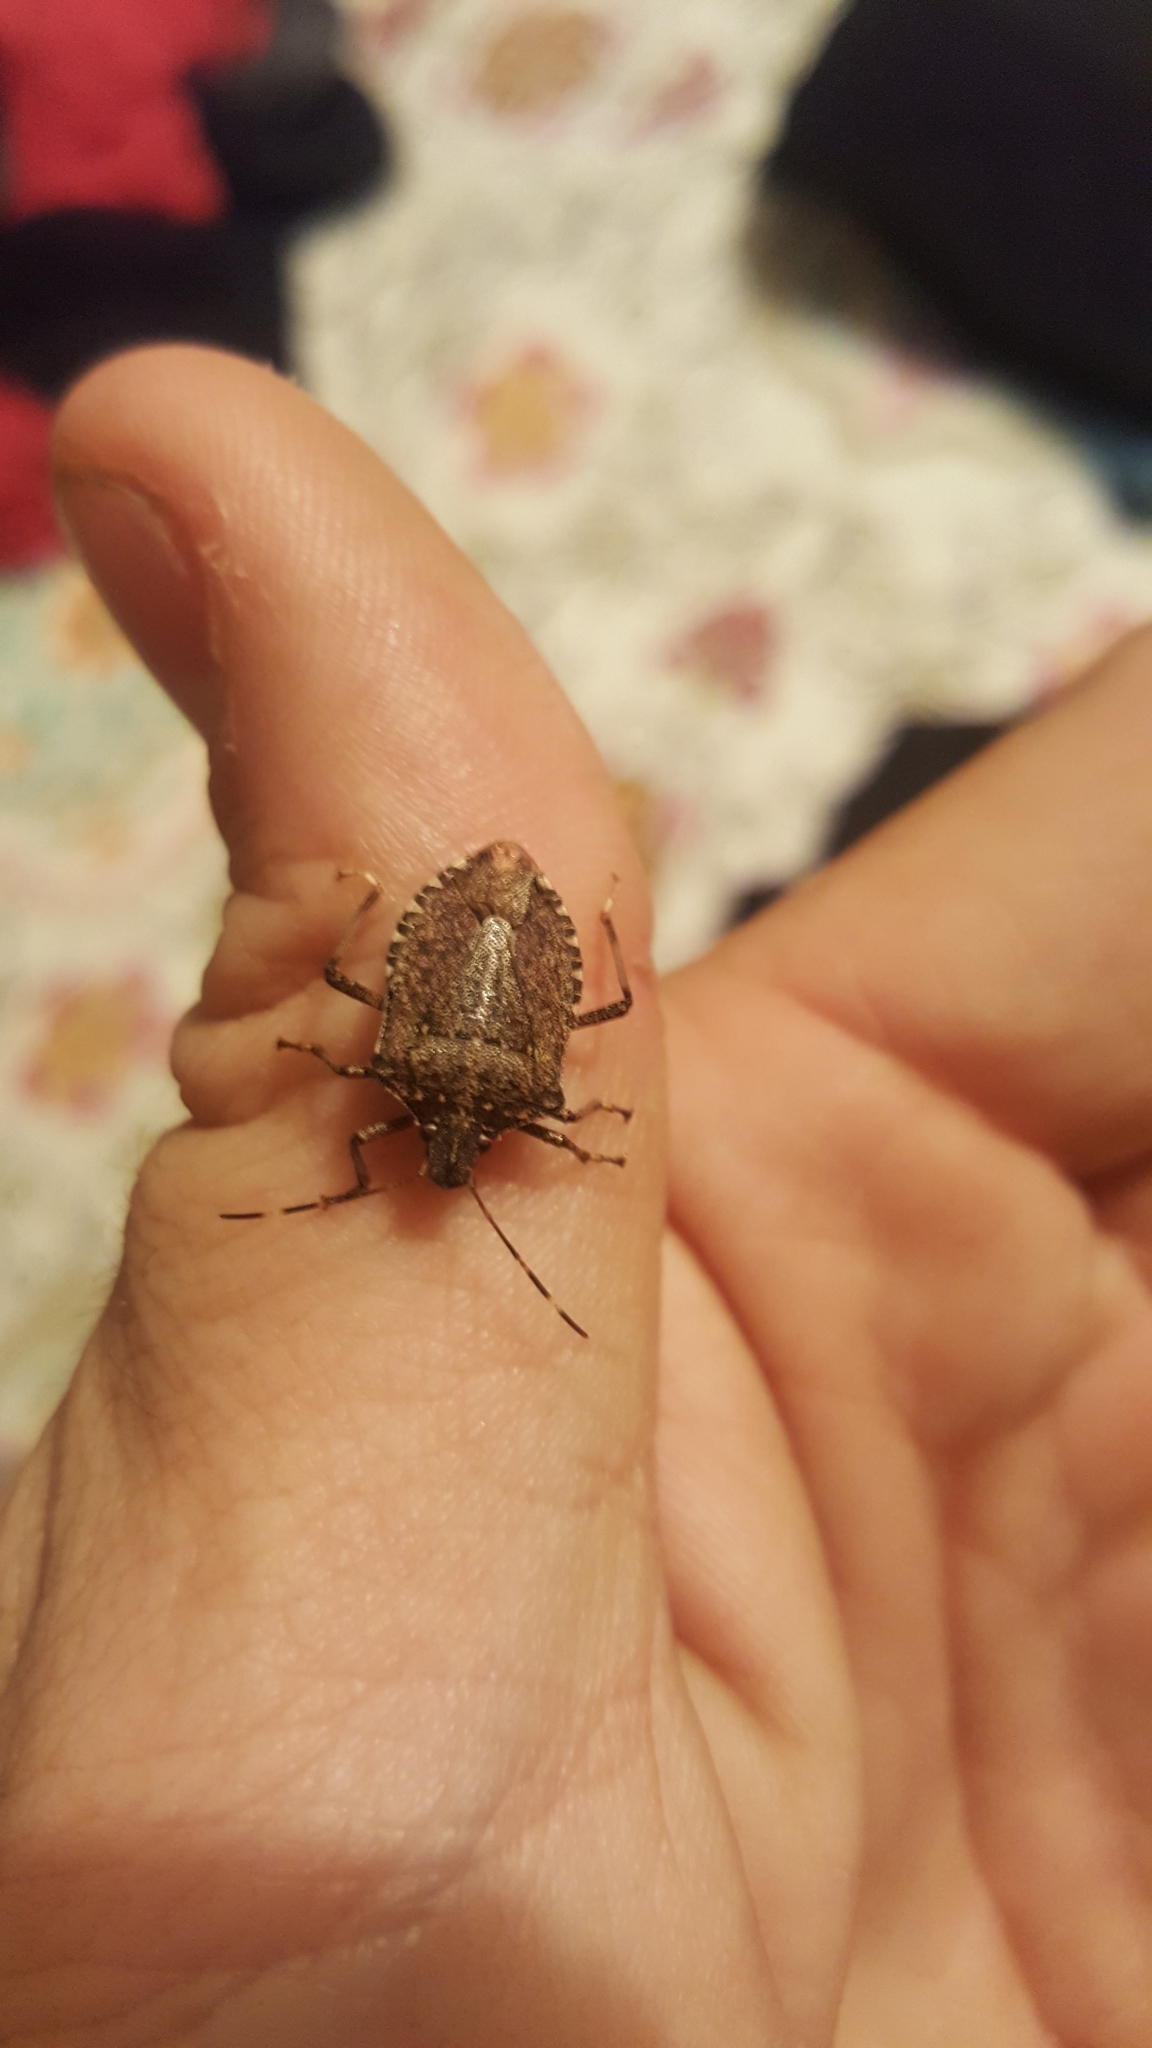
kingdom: Animalia
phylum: Arthropoda
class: Insecta
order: Hemiptera
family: Pentatomidae
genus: Halyomorpha
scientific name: Halyomorpha halys
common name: Brown marmorated stink bug
